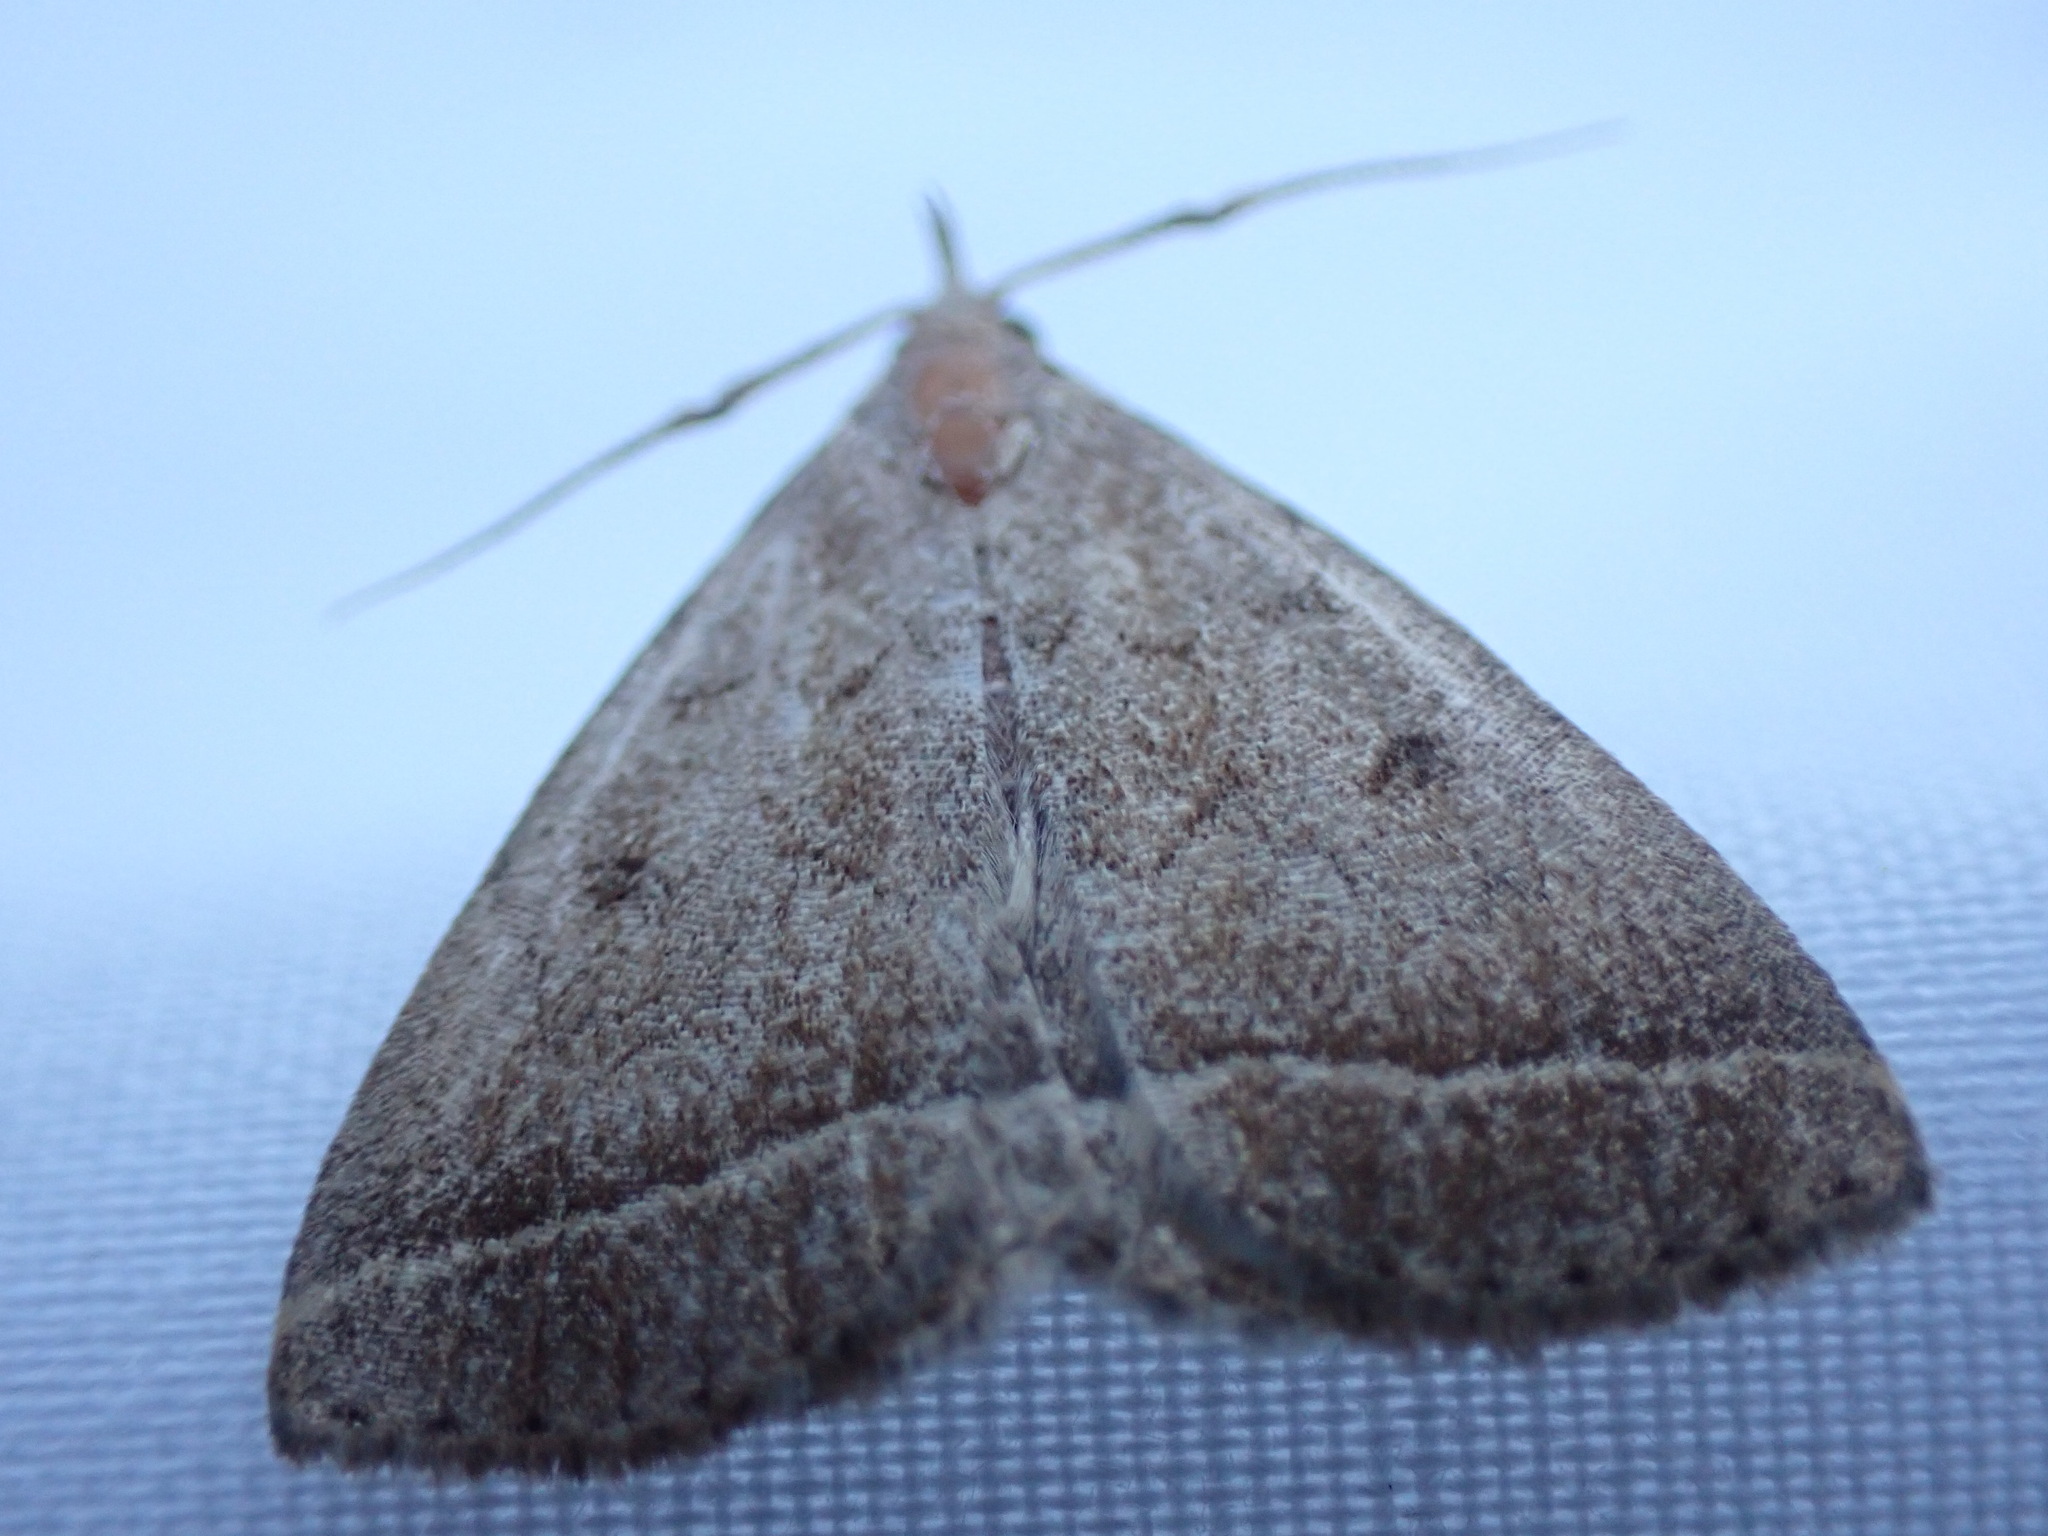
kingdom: Animalia
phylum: Arthropoda
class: Insecta
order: Lepidoptera
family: Erebidae
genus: Zanclognatha
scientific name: Zanclognatha jacchusalis
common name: Yellowish zanclognatha
